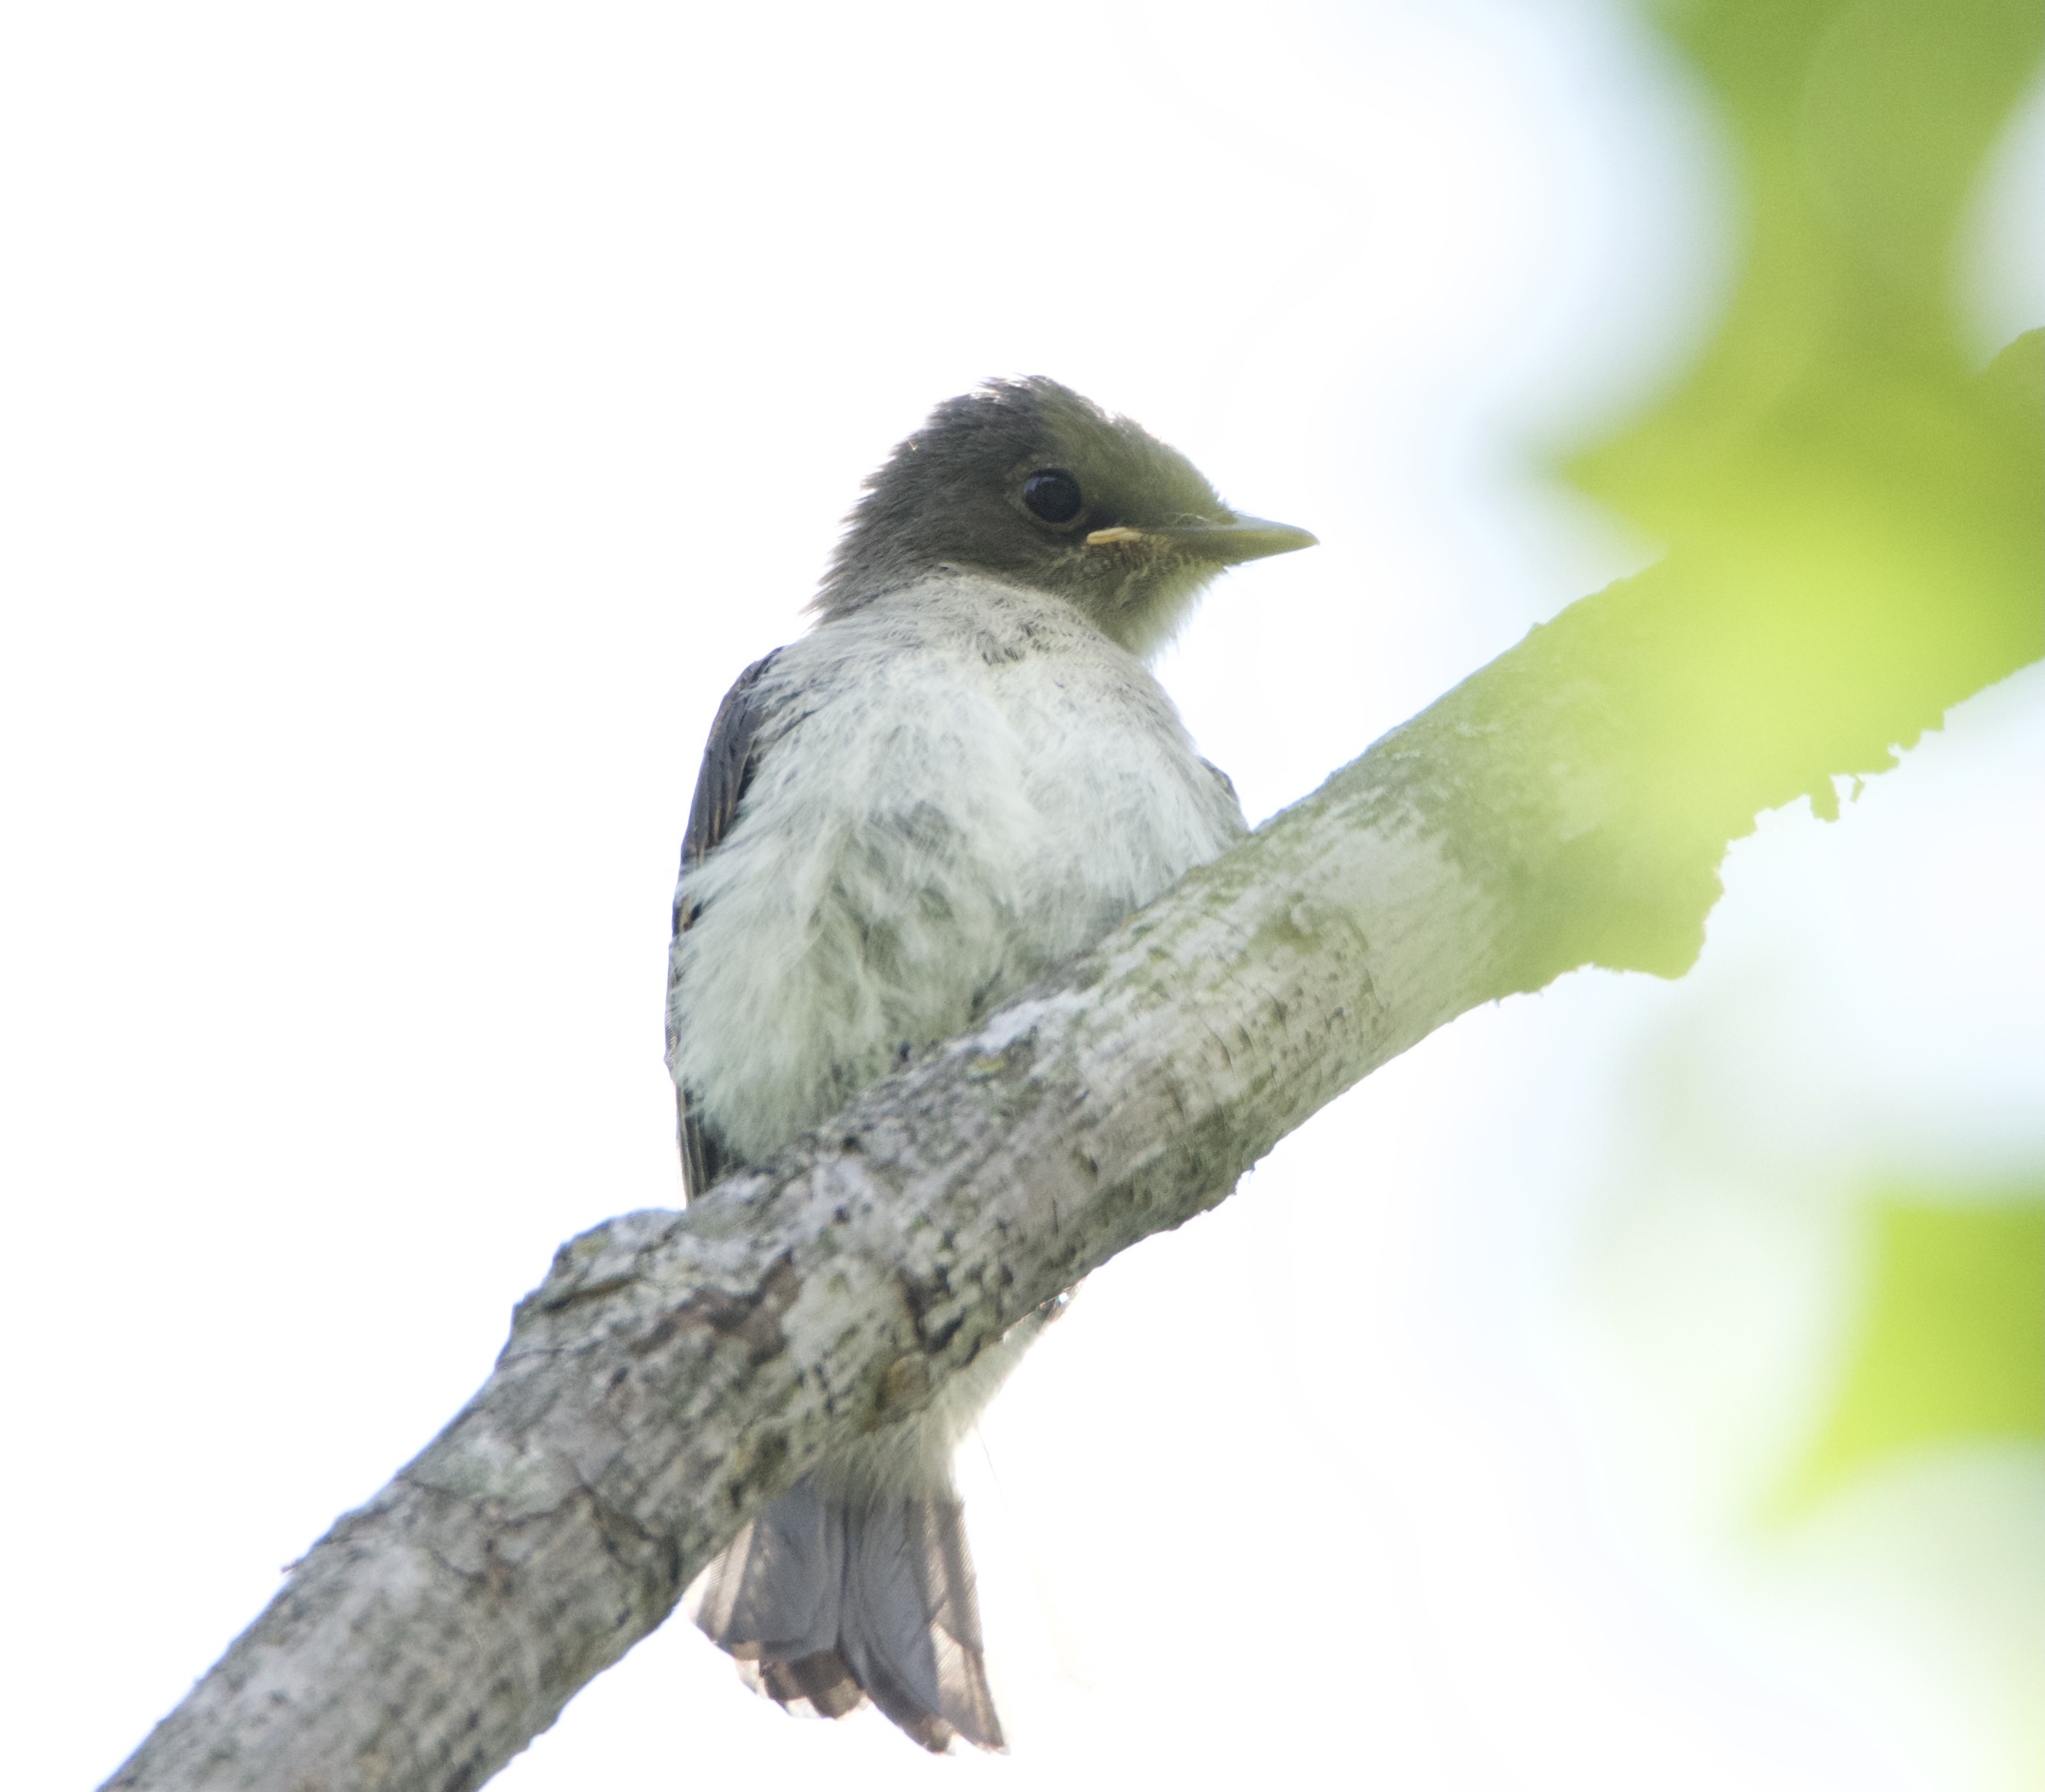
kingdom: Animalia
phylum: Chordata
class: Aves
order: Passeriformes
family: Tyrannidae
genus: Sayornis
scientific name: Sayornis phoebe
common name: Eastern phoebe
